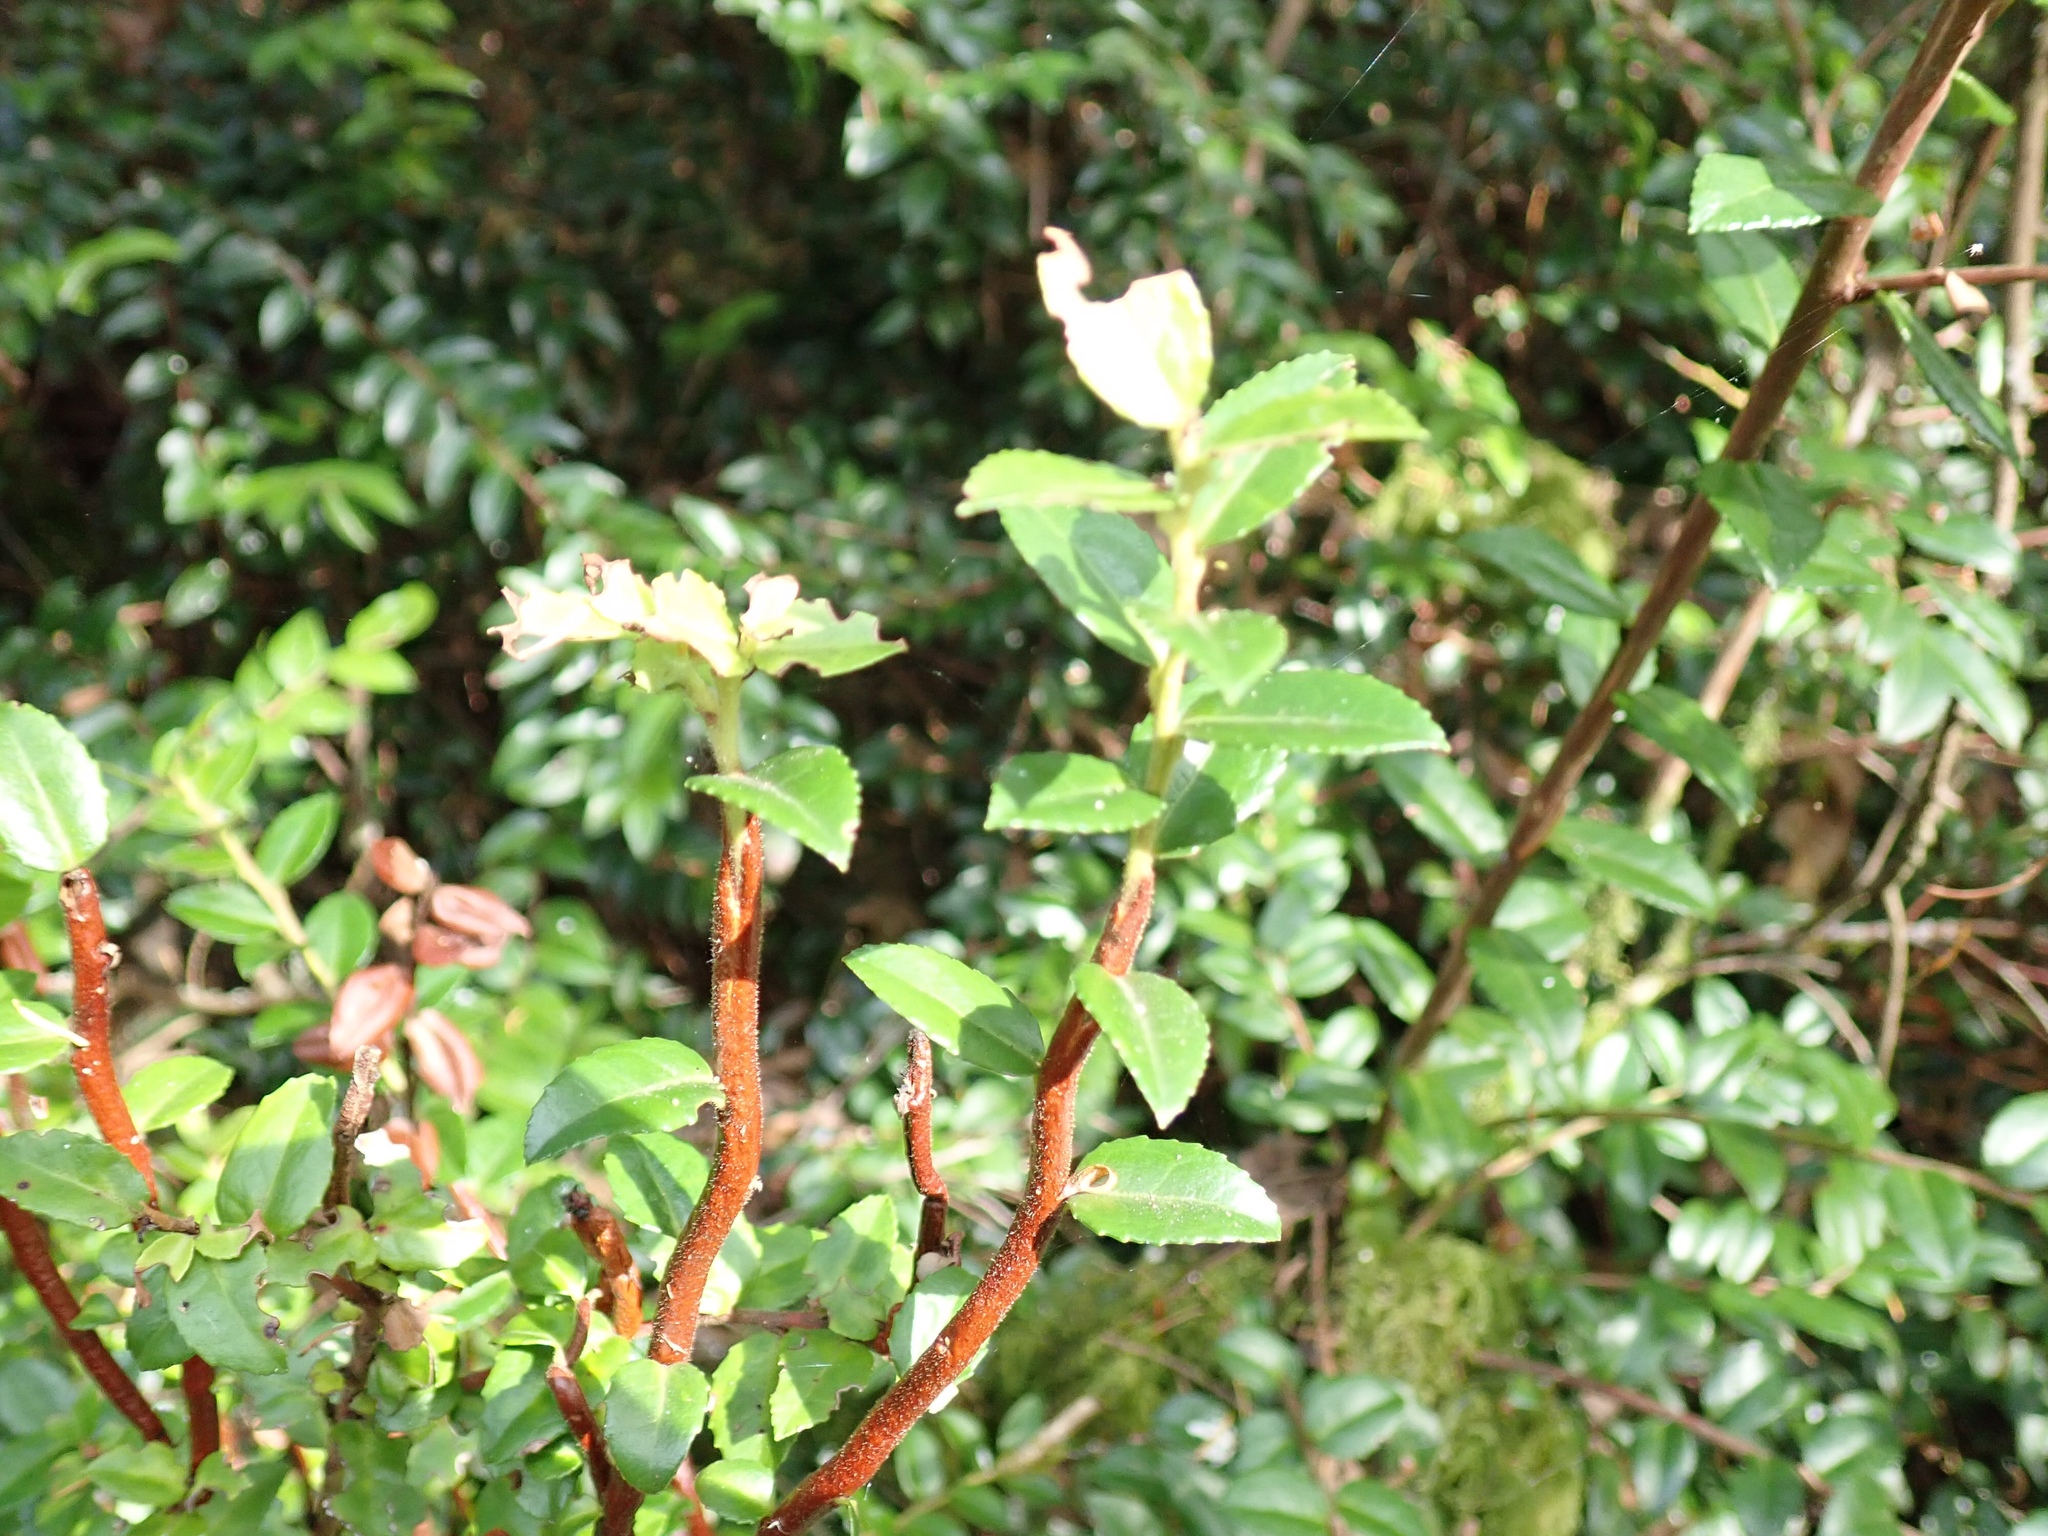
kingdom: Plantae
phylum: Tracheophyta
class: Magnoliopsida
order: Ericales
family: Ericaceae
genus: Vaccinium
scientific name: Vaccinium ovatum
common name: California-huckleberry
